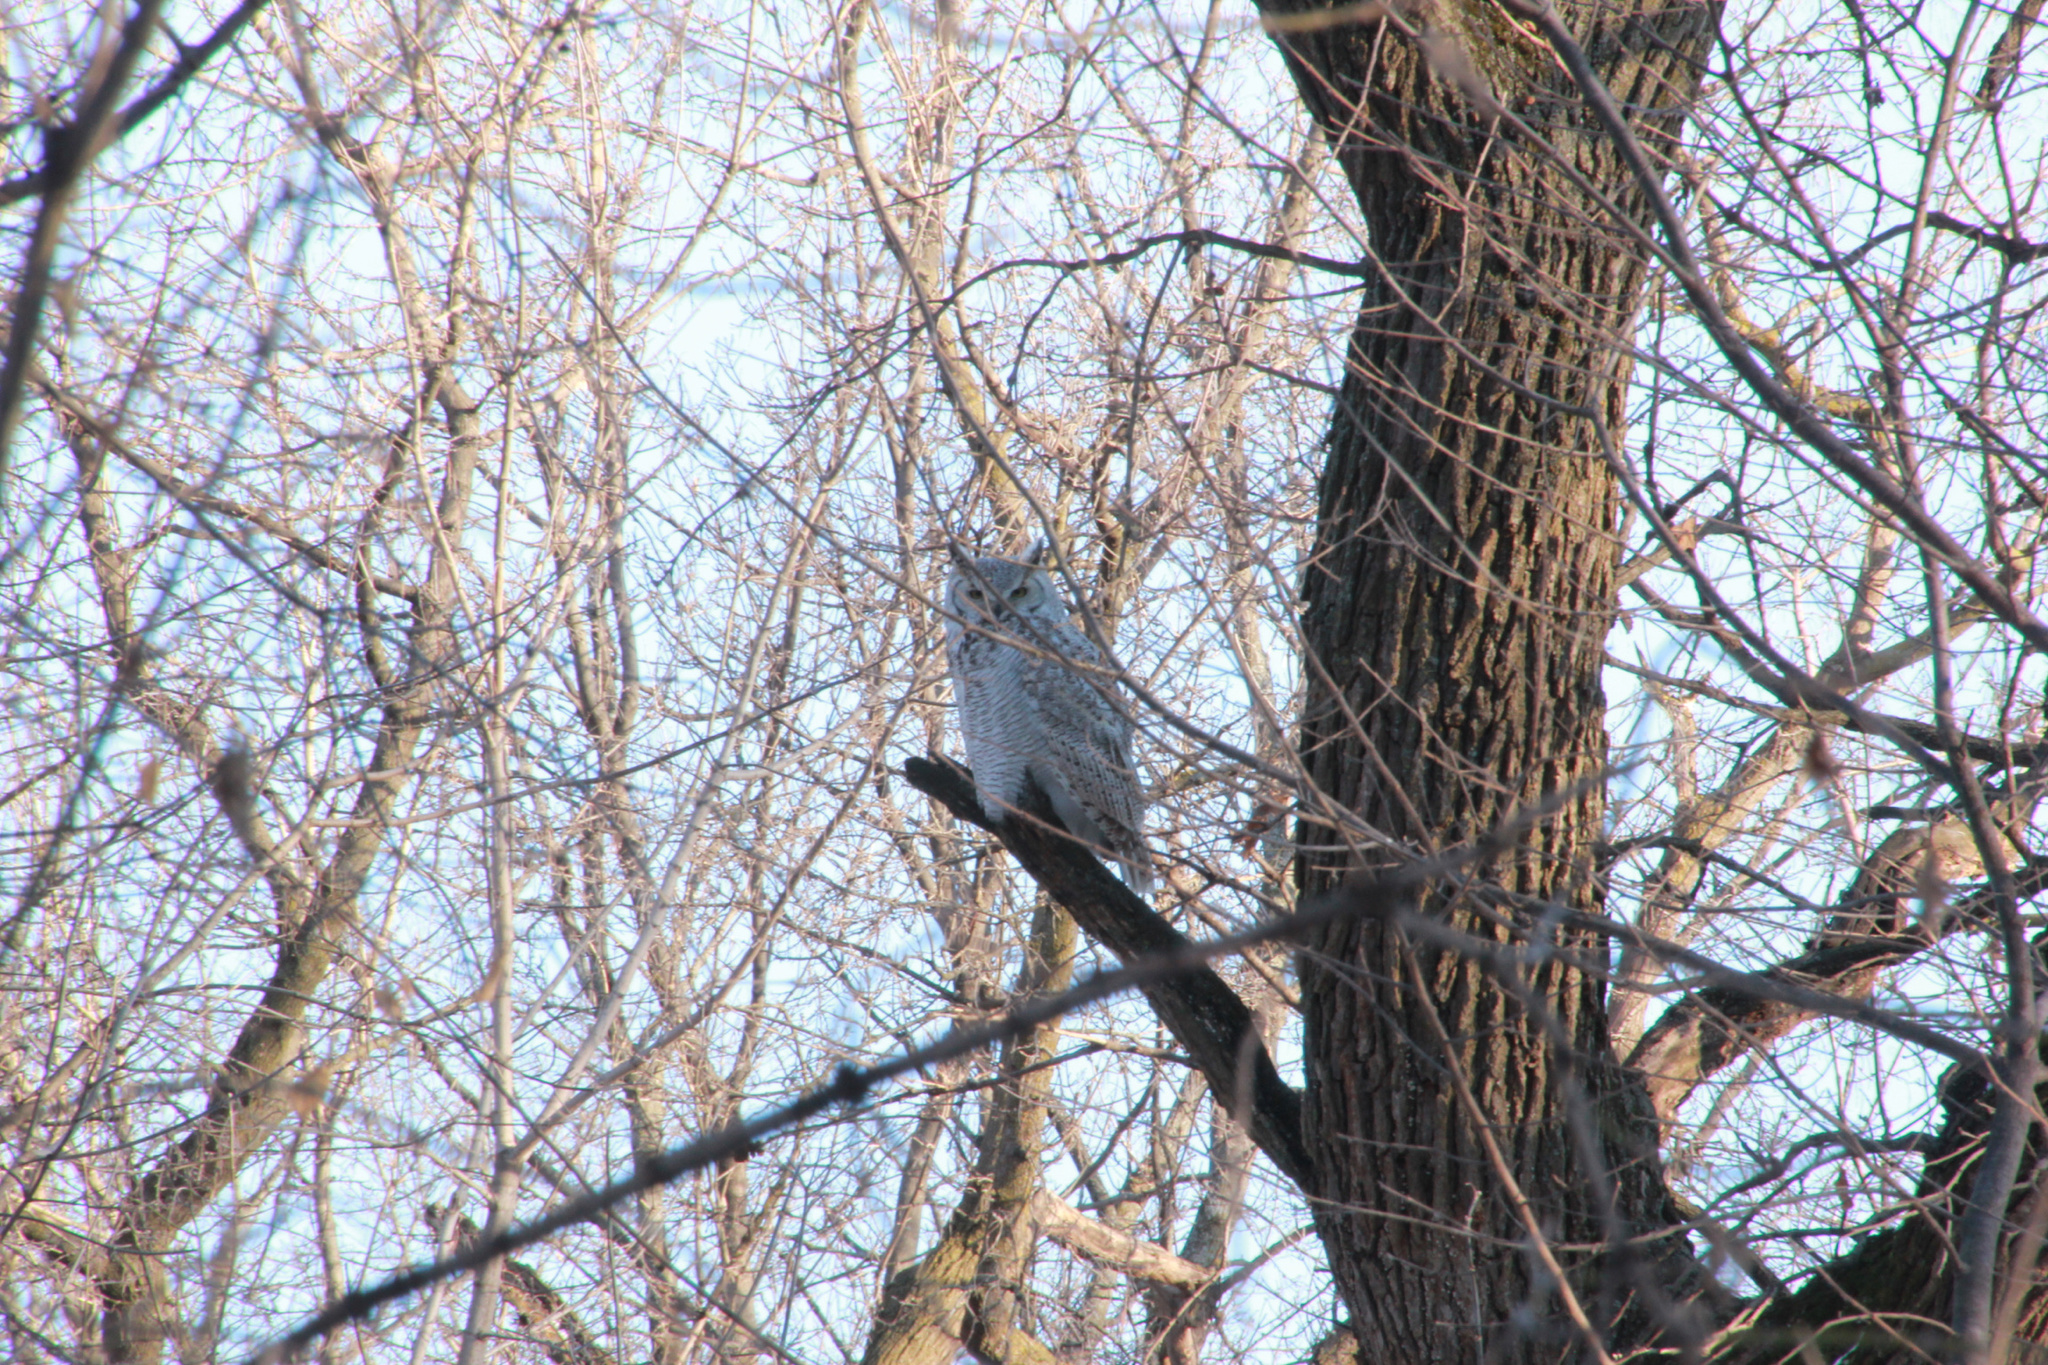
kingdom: Animalia
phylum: Chordata
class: Aves
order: Strigiformes
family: Strigidae
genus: Bubo
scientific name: Bubo virginianus
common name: Great horned owl
